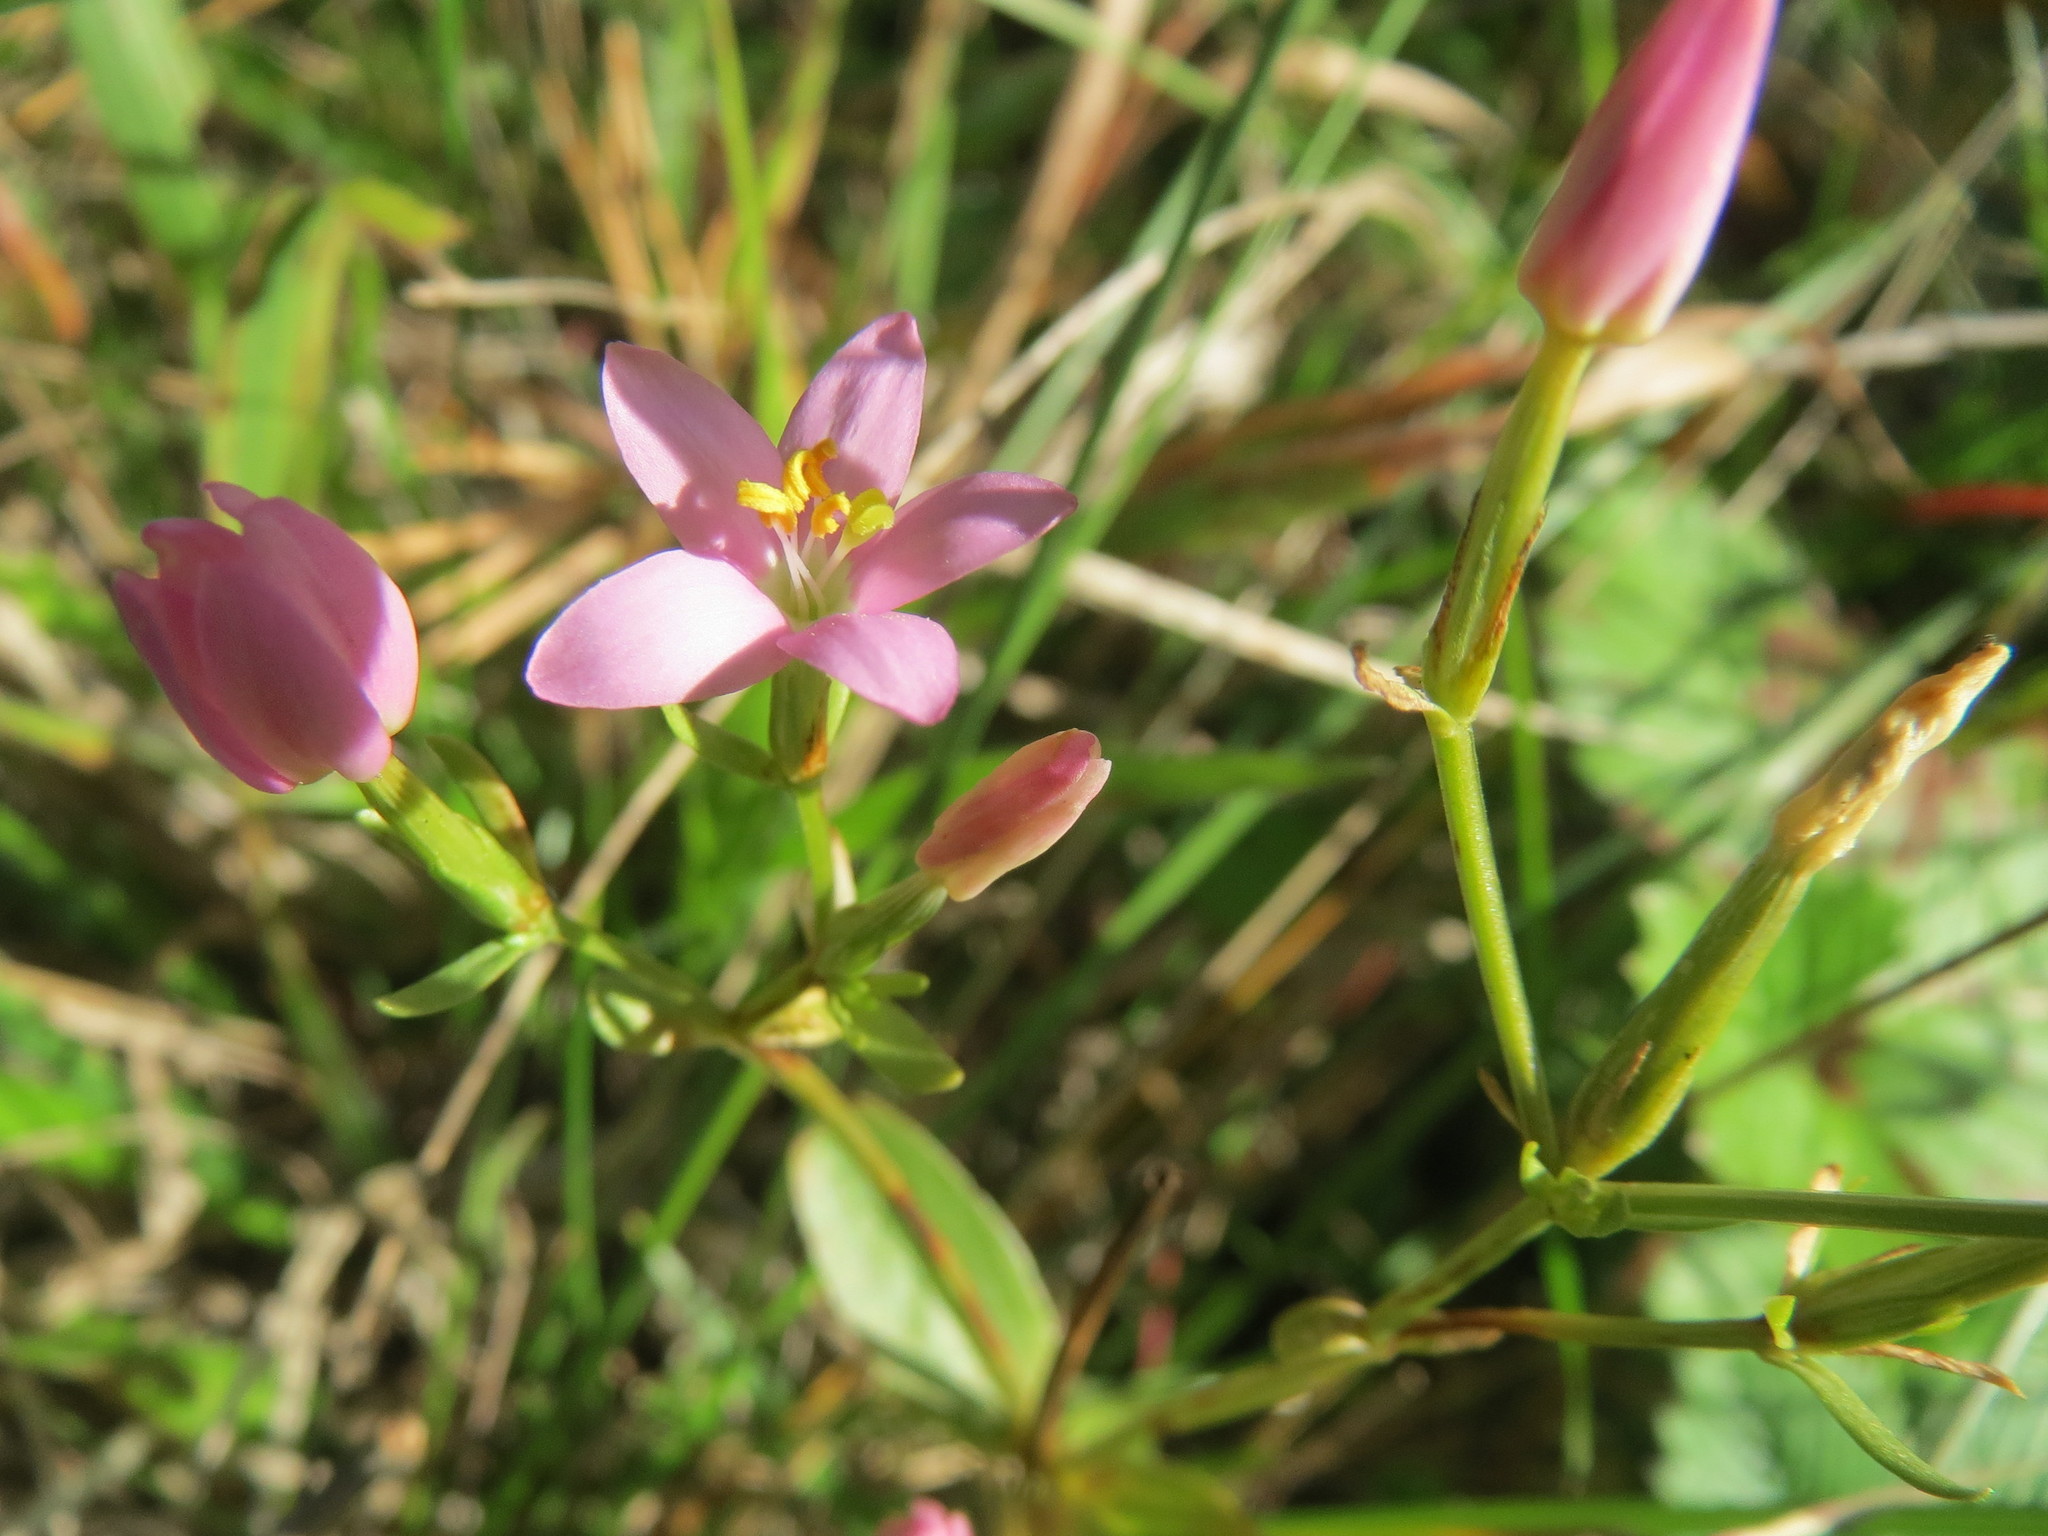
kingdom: Plantae
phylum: Tracheophyta
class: Magnoliopsida
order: Gentianales
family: Gentianaceae
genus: Centaurium
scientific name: Centaurium erythraea
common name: Common centaury
